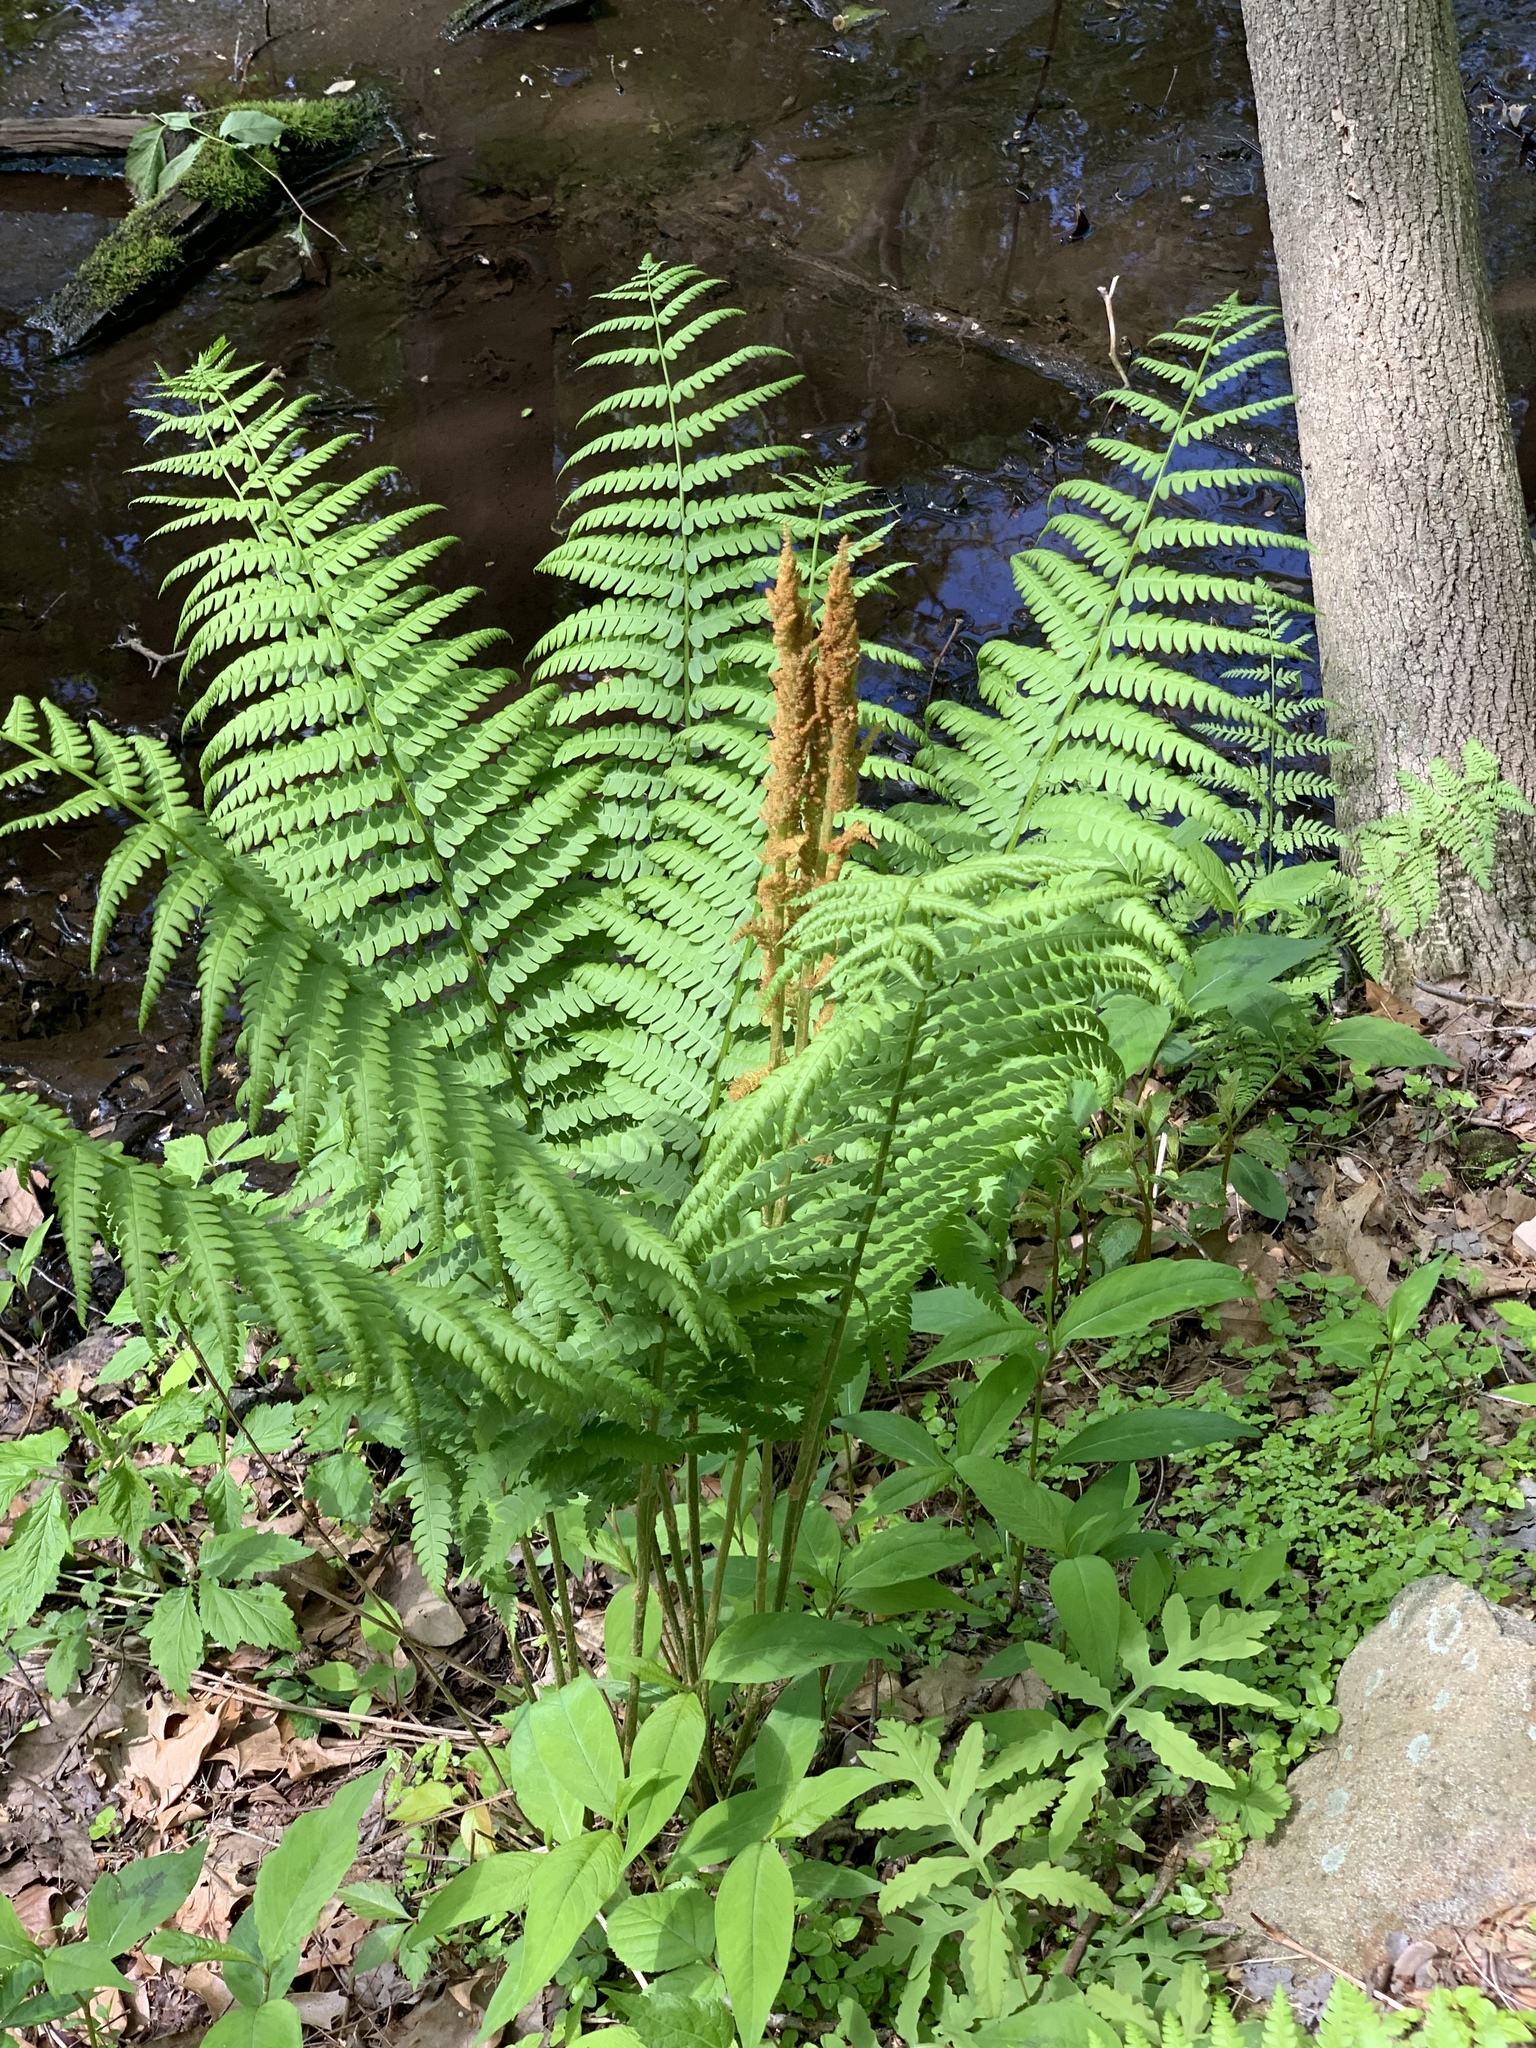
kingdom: Plantae
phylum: Tracheophyta
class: Polypodiopsida
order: Osmundales
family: Osmundaceae
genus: Osmundastrum
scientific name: Osmundastrum cinnamomeum
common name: Cinnamon fern
